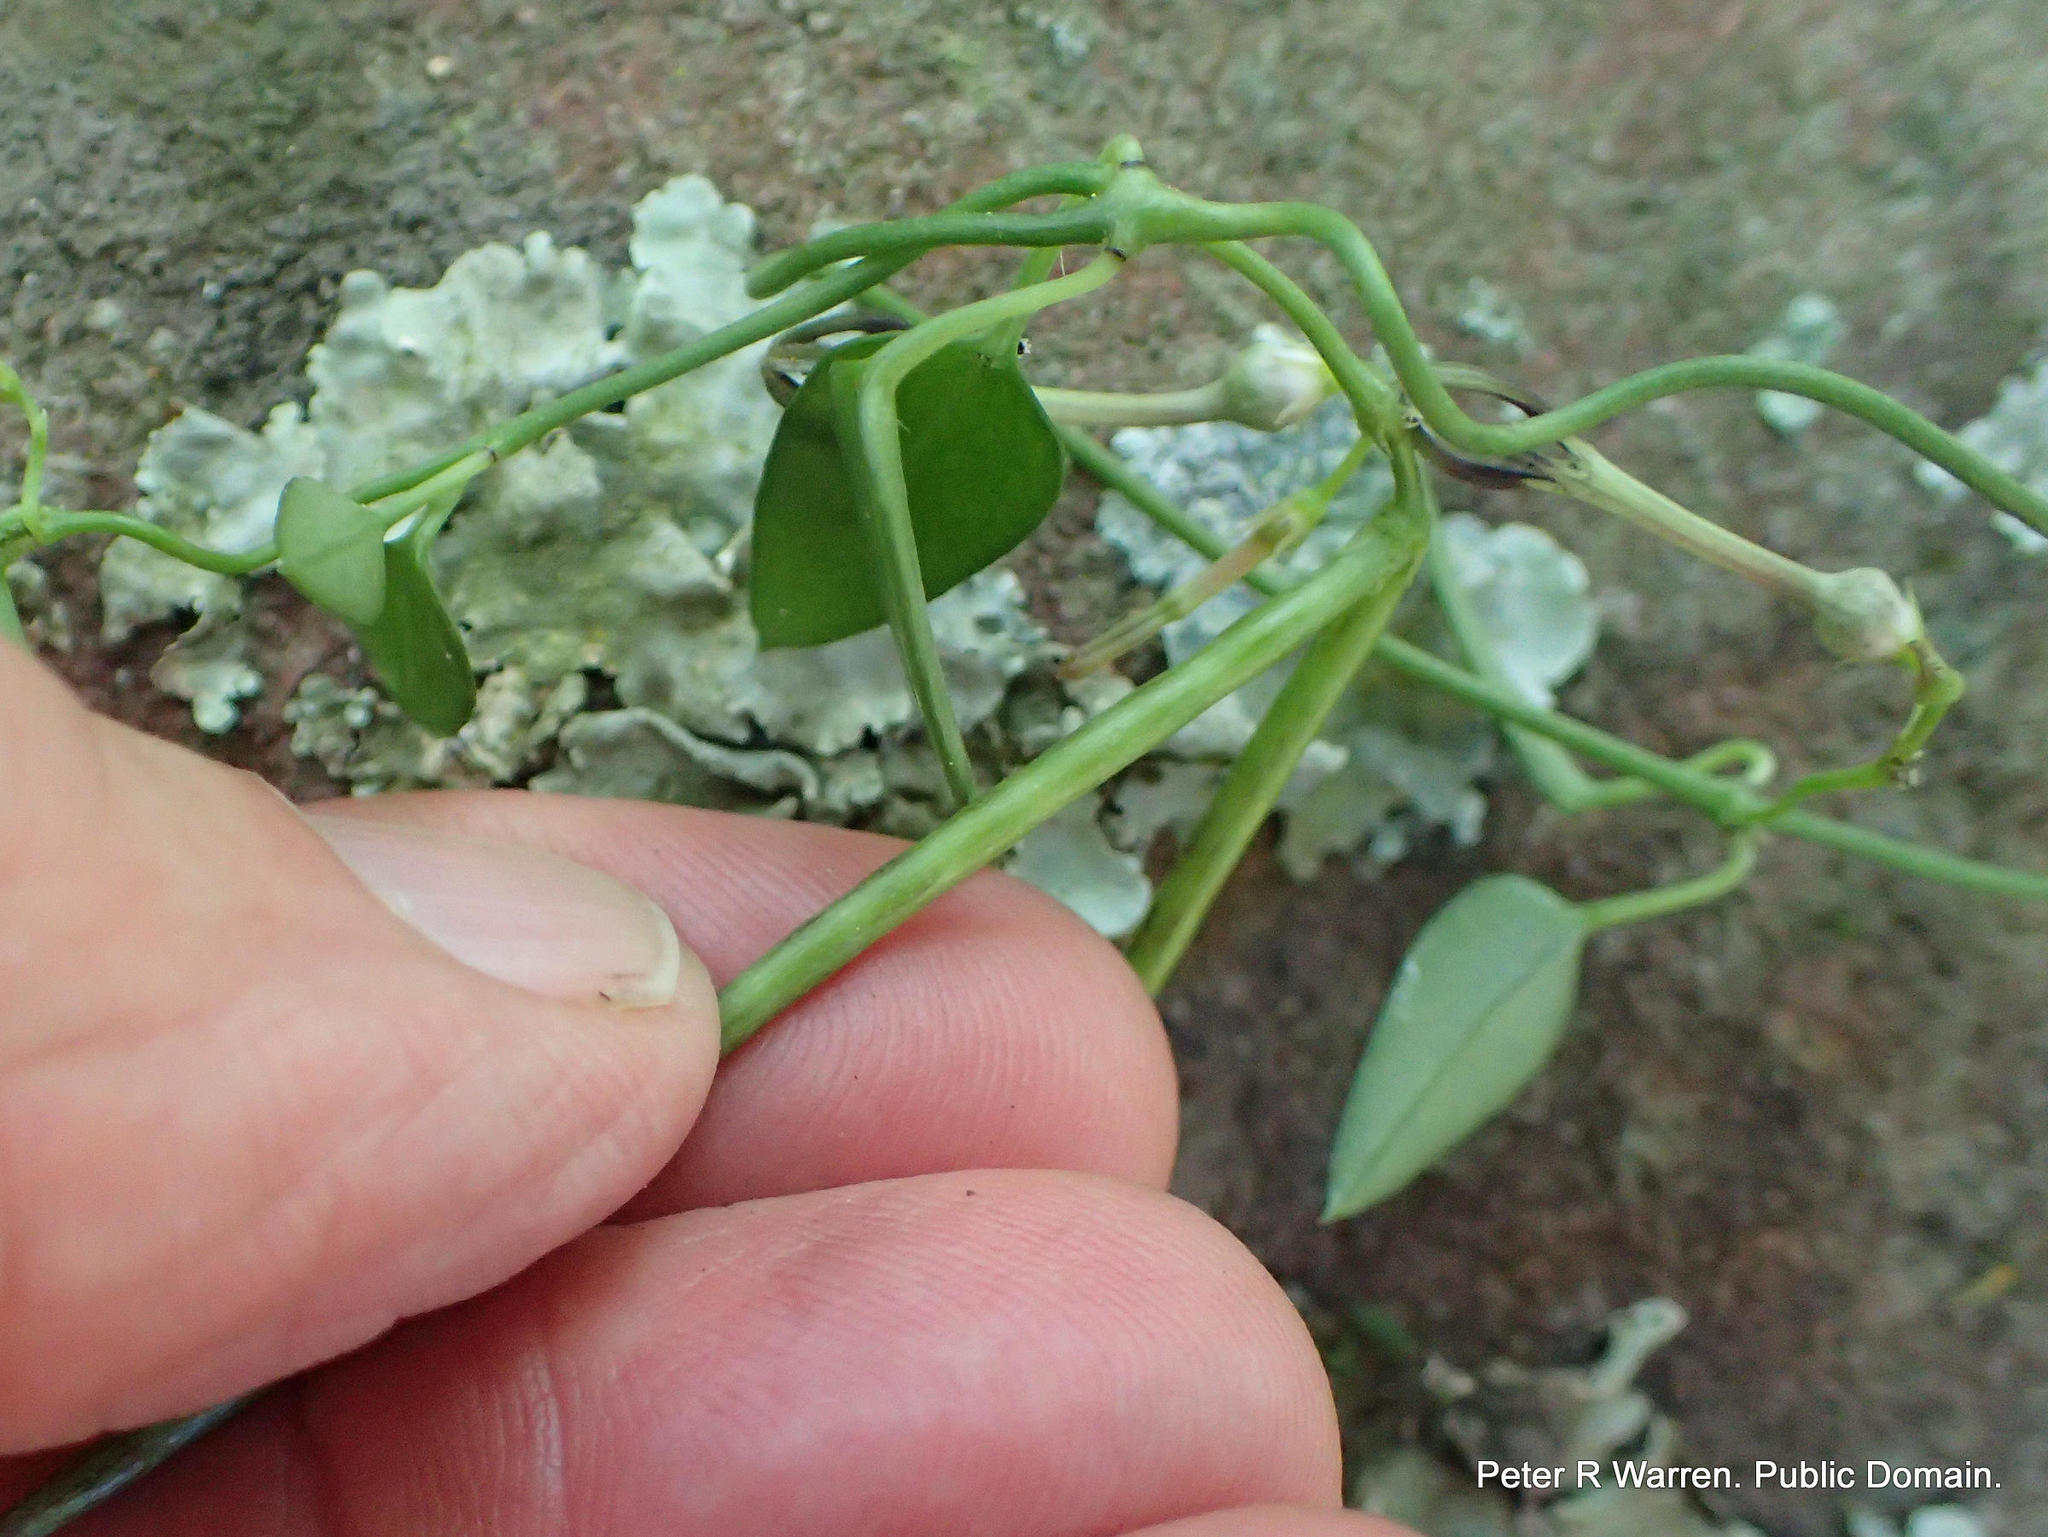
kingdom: Plantae
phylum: Tracheophyta
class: Magnoliopsida
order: Gentianales
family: Apocynaceae
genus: Ceropegia
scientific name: Ceropegia linearis
